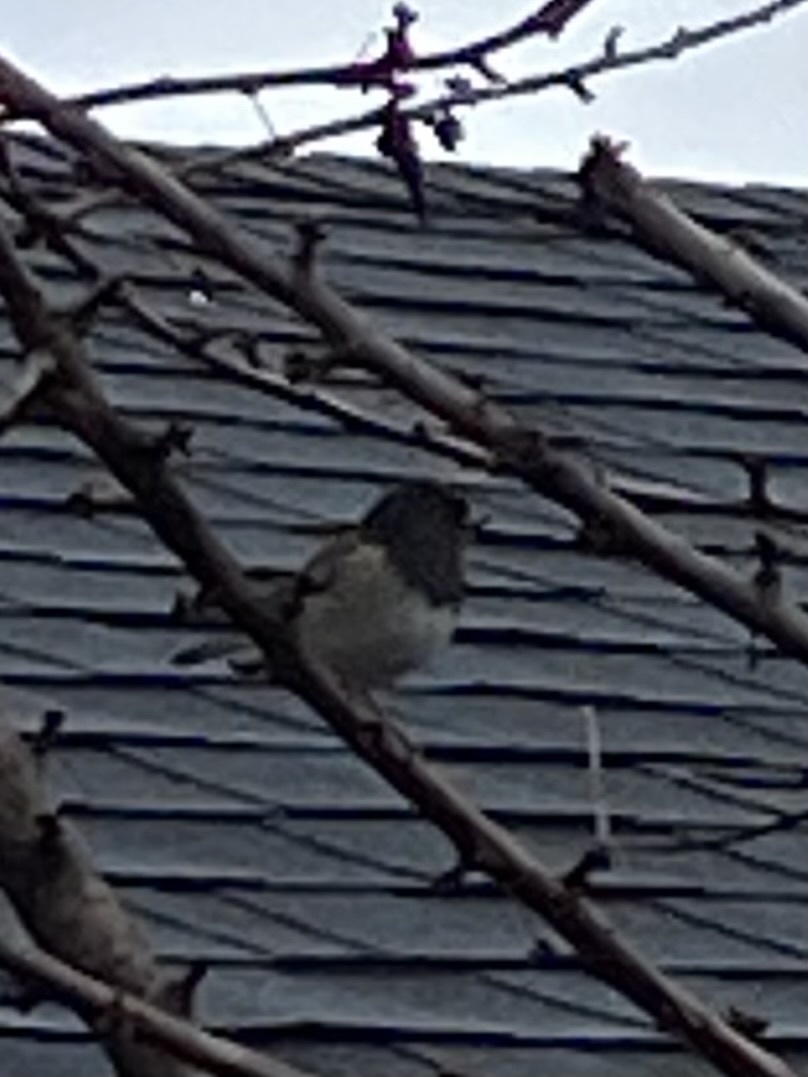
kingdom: Animalia
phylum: Chordata
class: Aves
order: Passeriformes
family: Passerellidae
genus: Junco
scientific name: Junco hyemalis
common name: Dark-eyed junco
